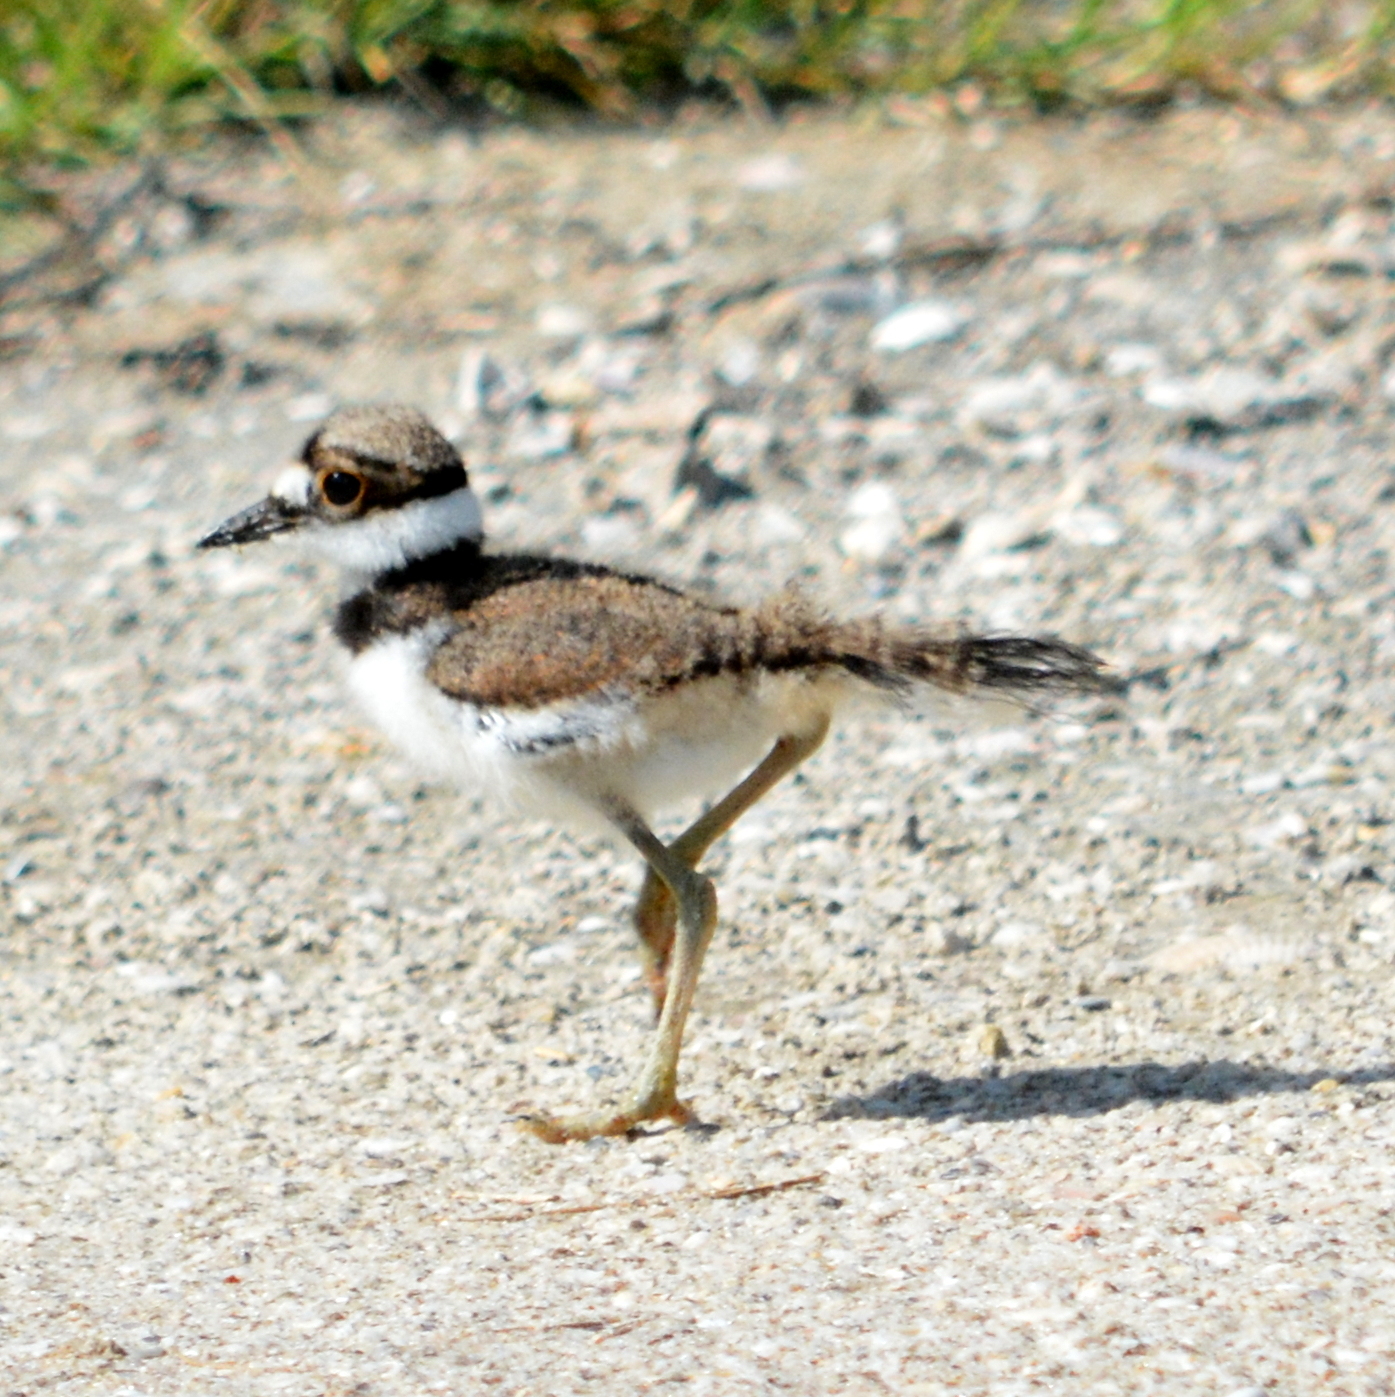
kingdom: Animalia
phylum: Chordata
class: Aves
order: Charadriiformes
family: Charadriidae
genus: Charadrius
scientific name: Charadrius vociferus
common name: Killdeer
